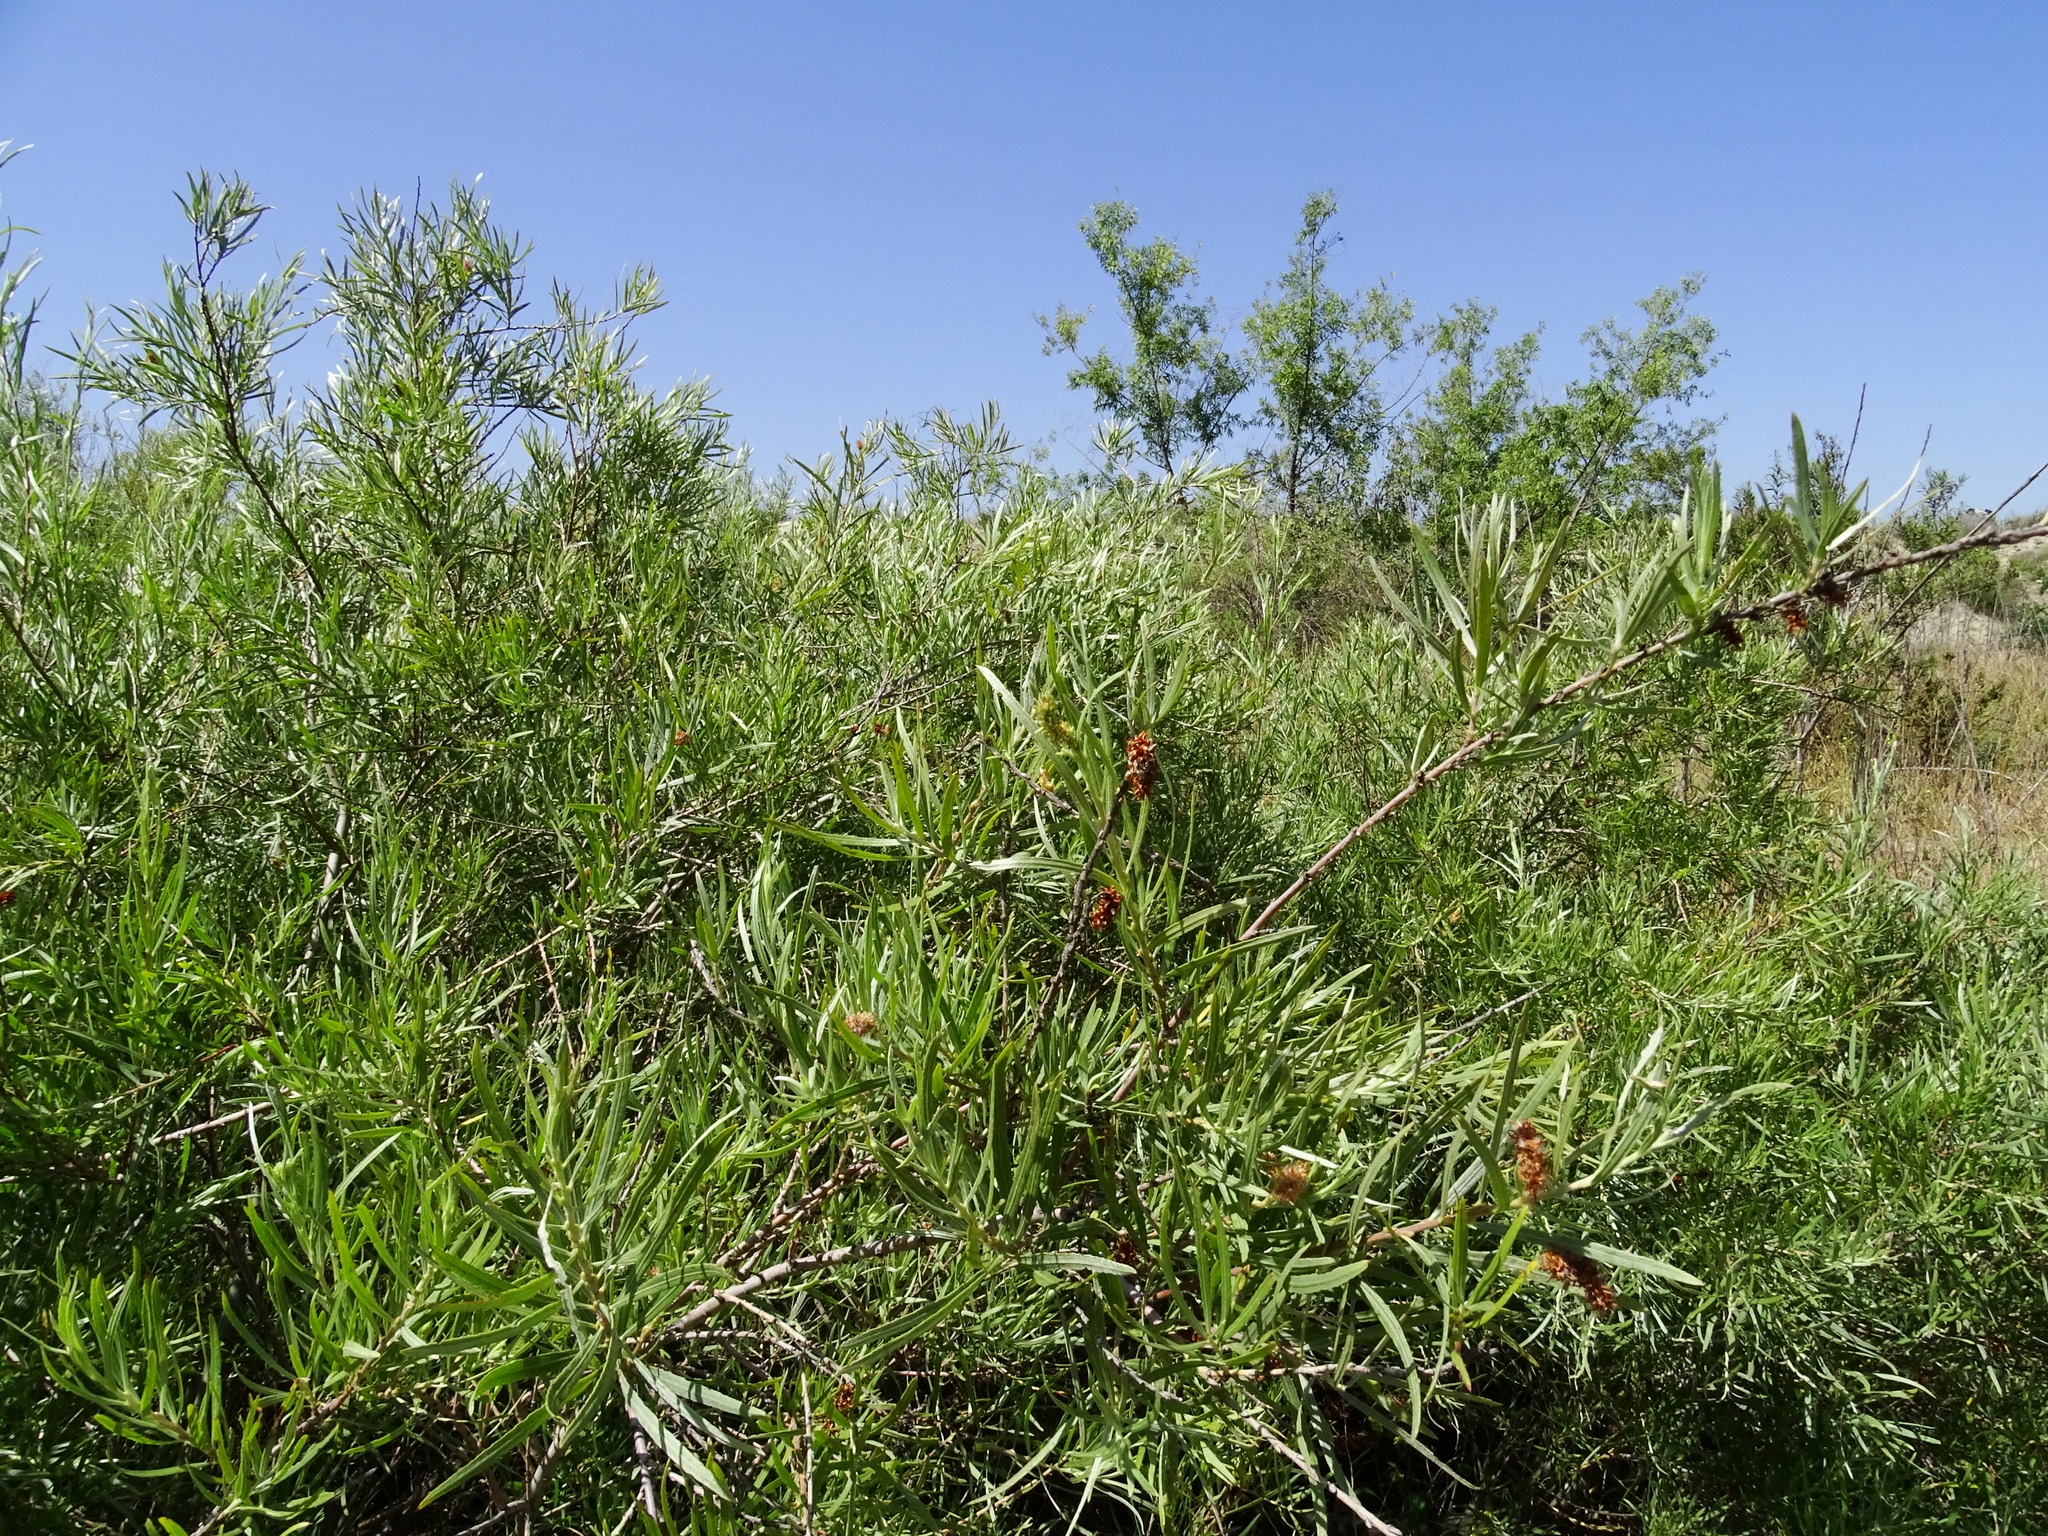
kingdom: Plantae
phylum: Tracheophyta
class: Magnoliopsida
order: Malpighiales
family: Salicaceae
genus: Salix
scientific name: Salix exigua
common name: Coyote willow
